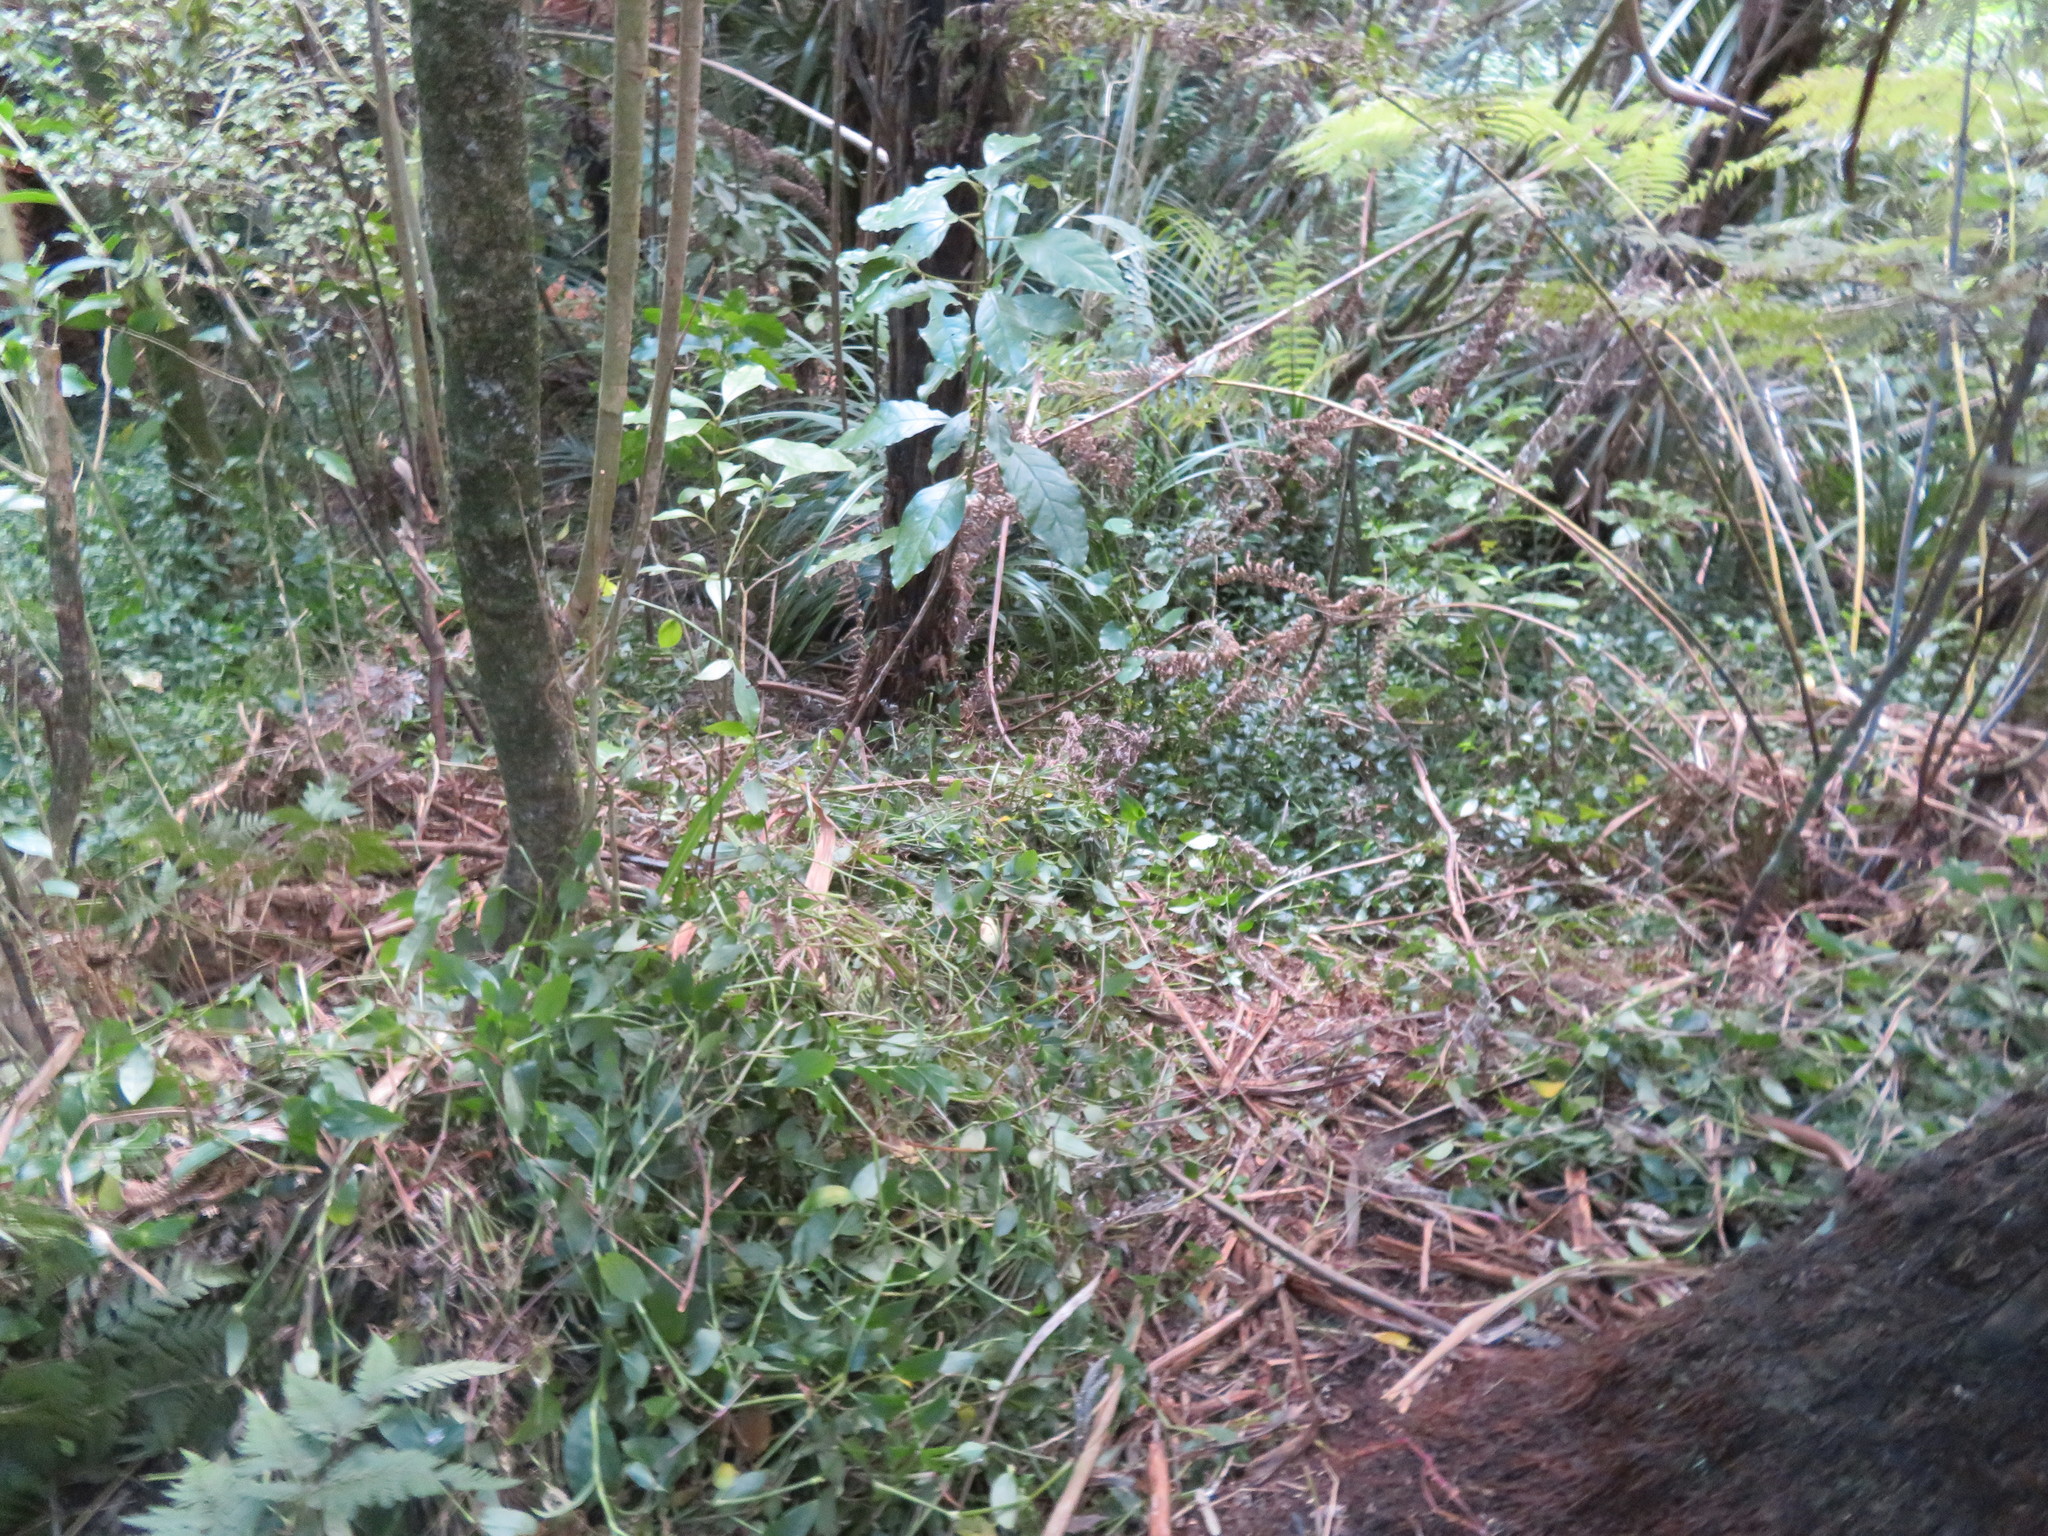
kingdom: Plantae
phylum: Tracheophyta
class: Liliopsida
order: Commelinales
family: Commelinaceae
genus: Tradescantia
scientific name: Tradescantia fluminensis
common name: Wandering-jew
